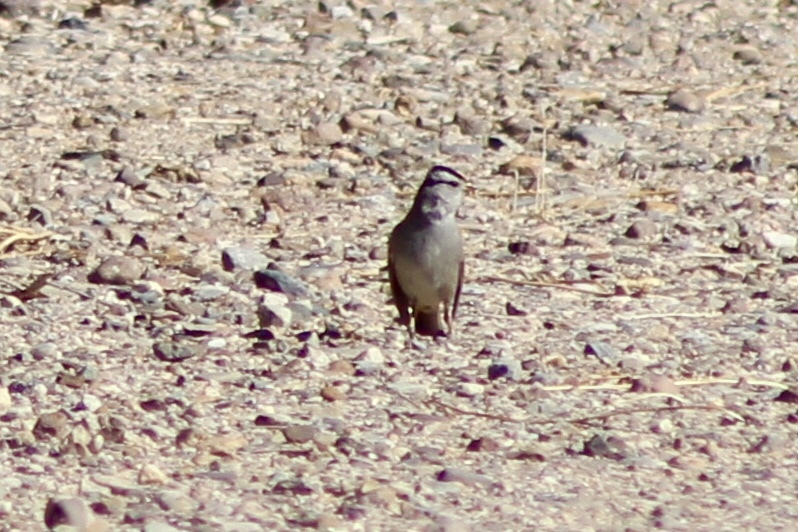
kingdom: Animalia
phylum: Chordata
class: Aves
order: Passeriformes
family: Passerellidae
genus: Zonotrichia
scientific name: Zonotrichia leucophrys
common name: White-crowned sparrow
